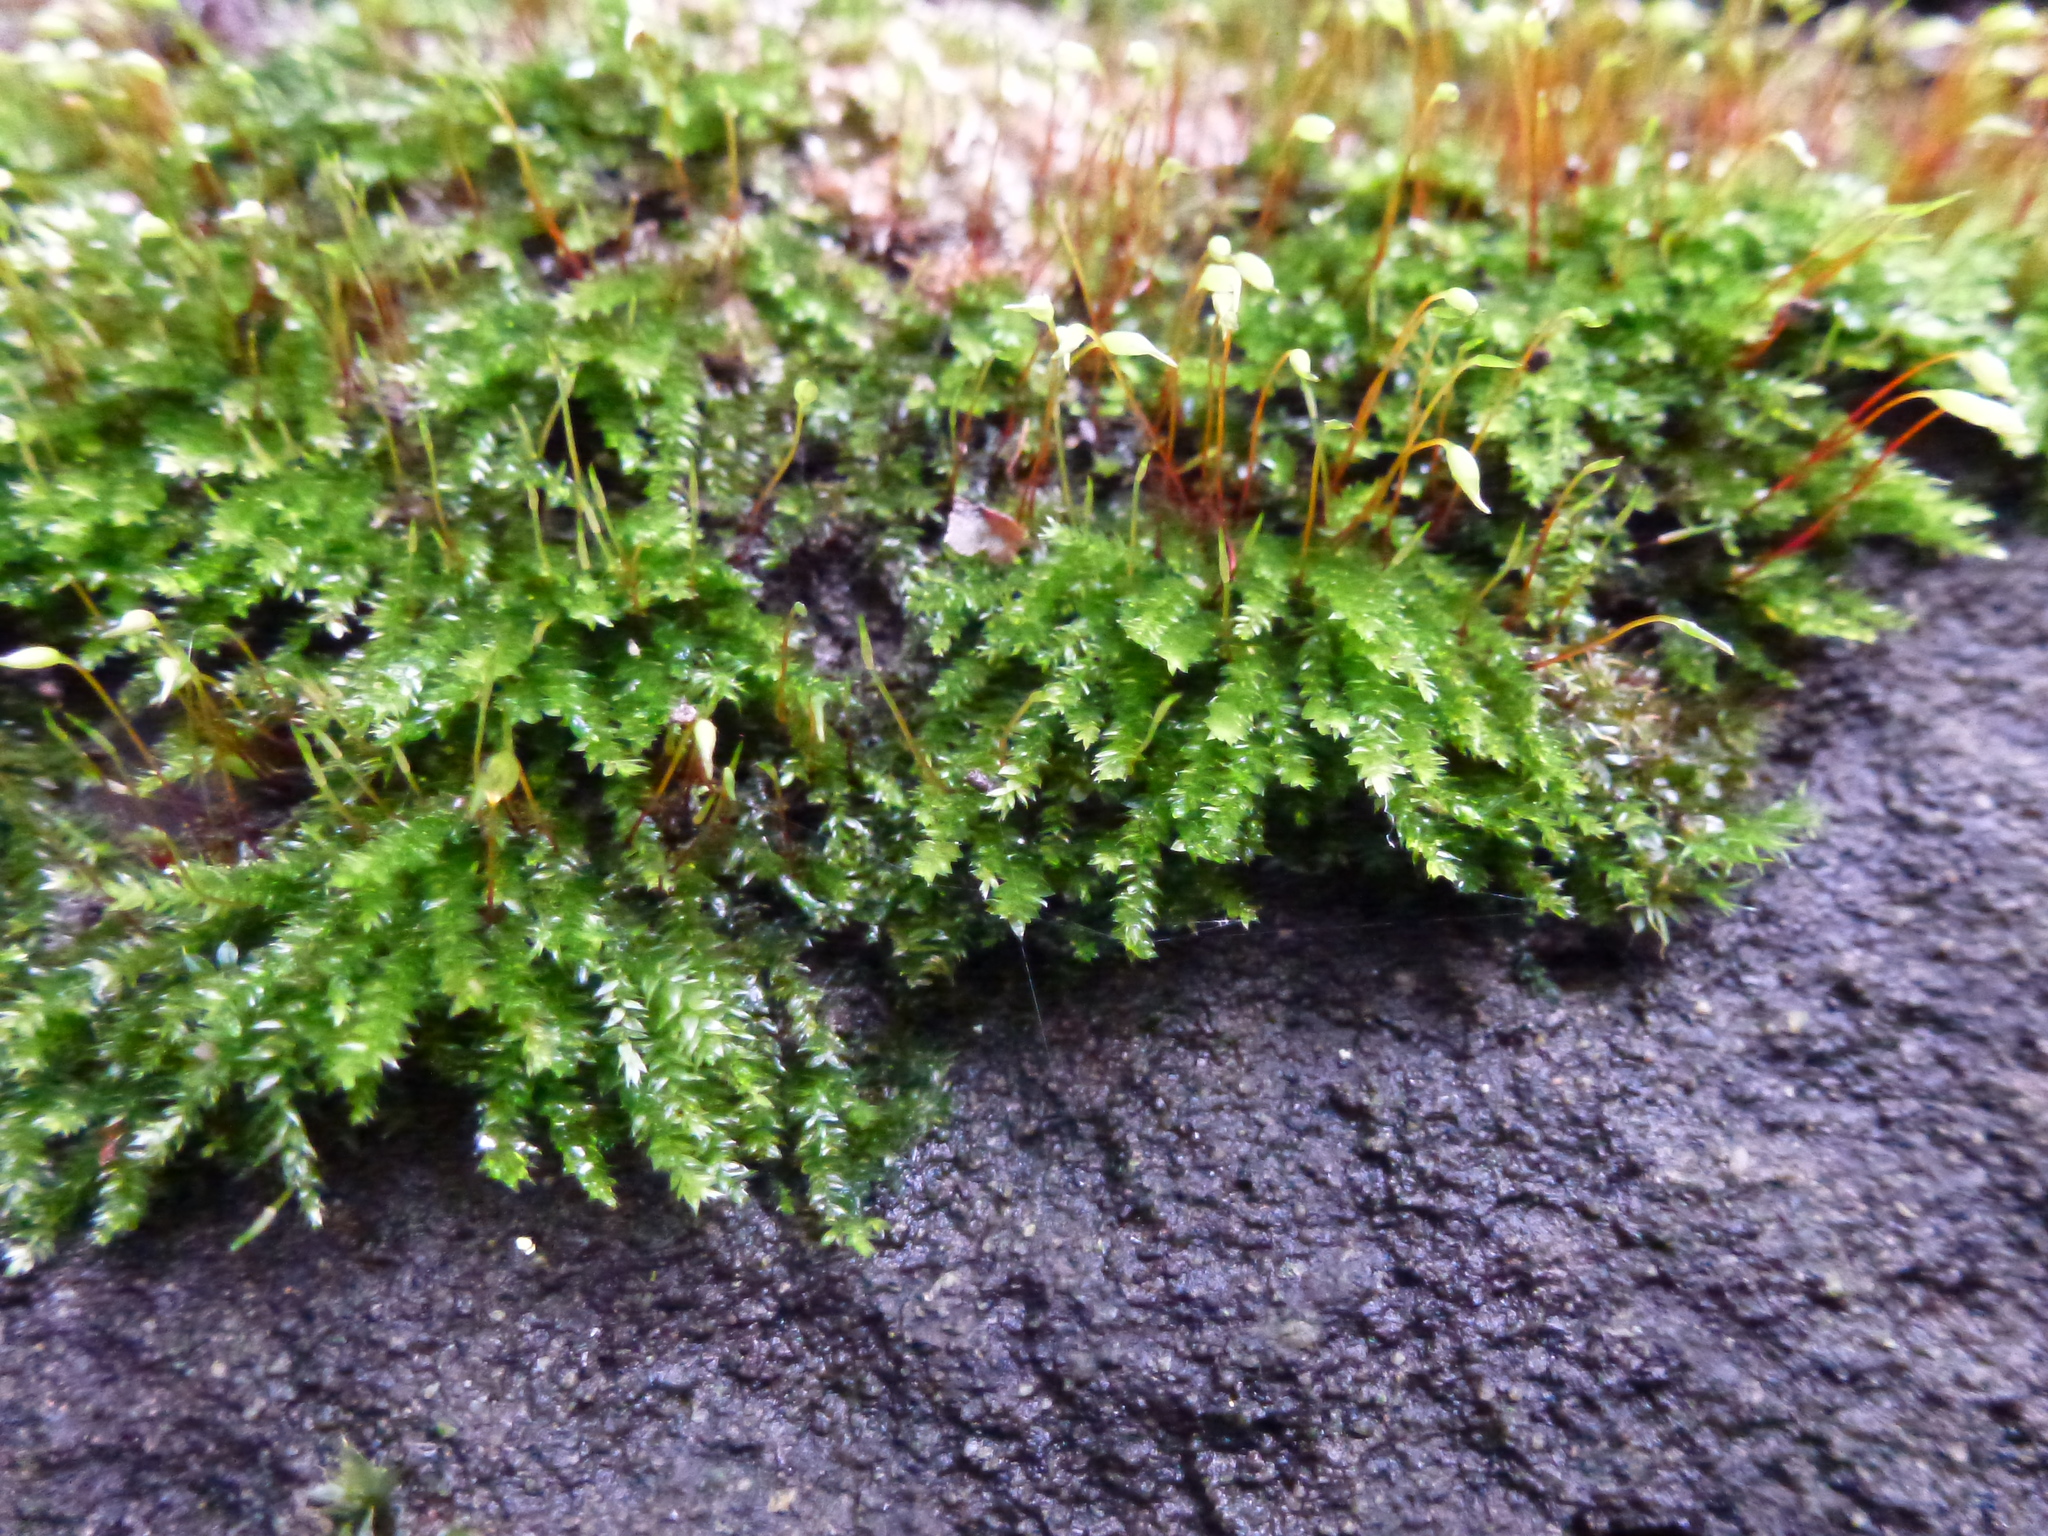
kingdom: Plantae
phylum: Bryophyta
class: Bryopsida
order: Hypnales
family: Brachytheciaceae
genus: Rhynchostegium
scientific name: Rhynchostegium confertum
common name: Clustered feather-moss
